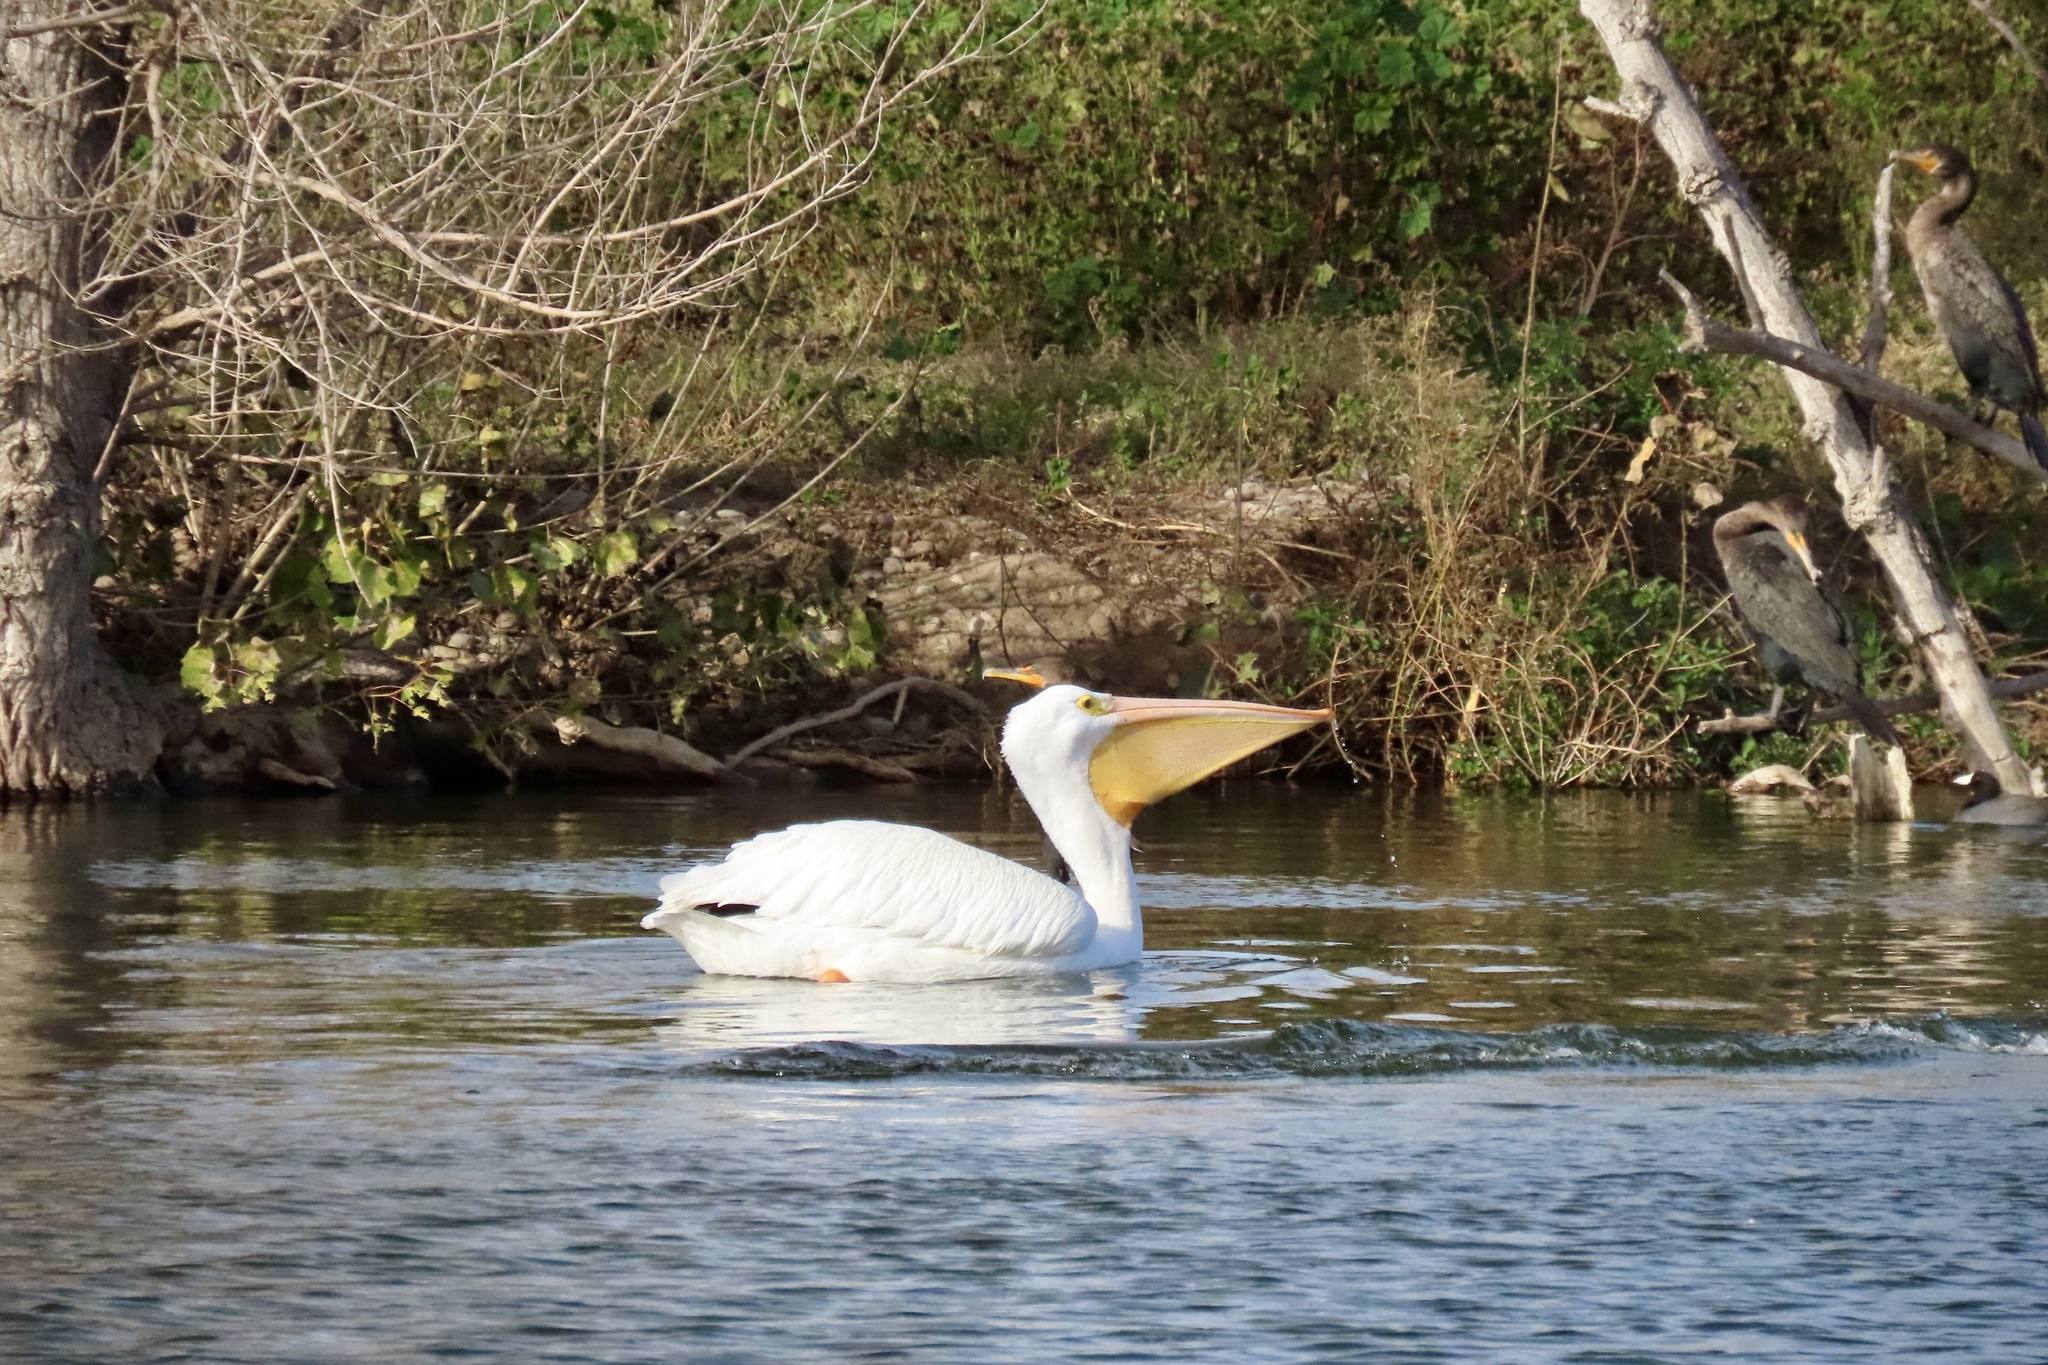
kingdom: Animalia
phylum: Chordata
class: Aves
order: Pelecaniformes
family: Pelecanidae
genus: Pelecanus
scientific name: Pelecanus erythrorhynchos
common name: American white pelican
